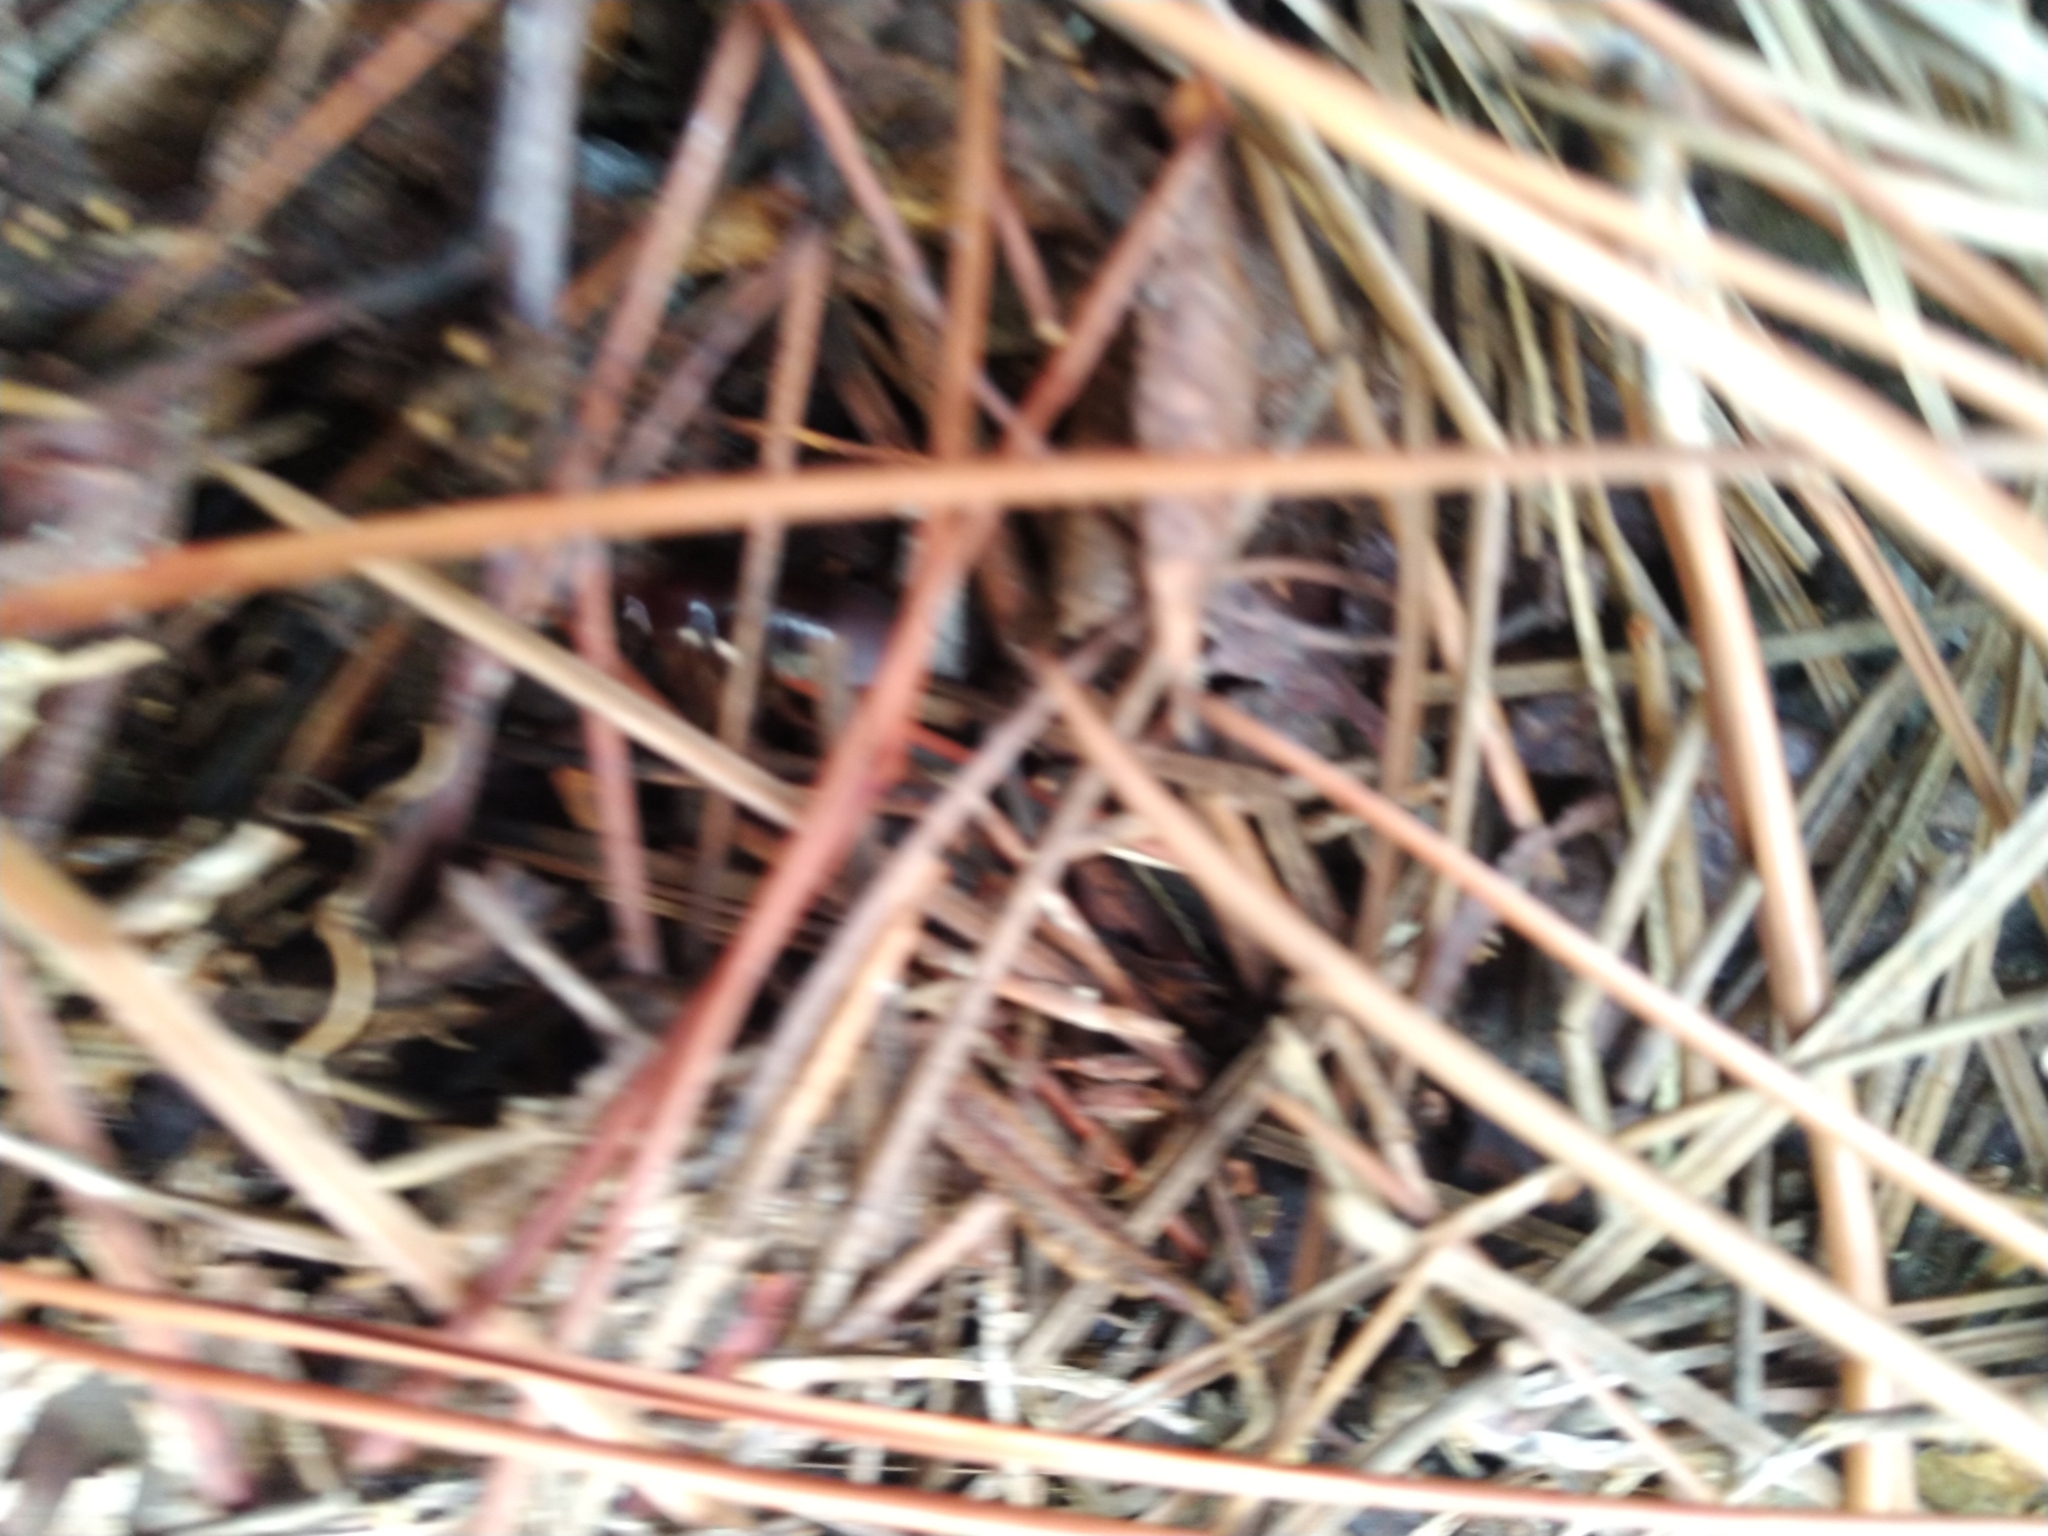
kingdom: Animalia
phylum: Arthropoda
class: Insecta
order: Blattodea
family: Blaberidae
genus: Pycnoscelus
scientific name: Pycnoscelus surinamensis
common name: Surinam cockroach
